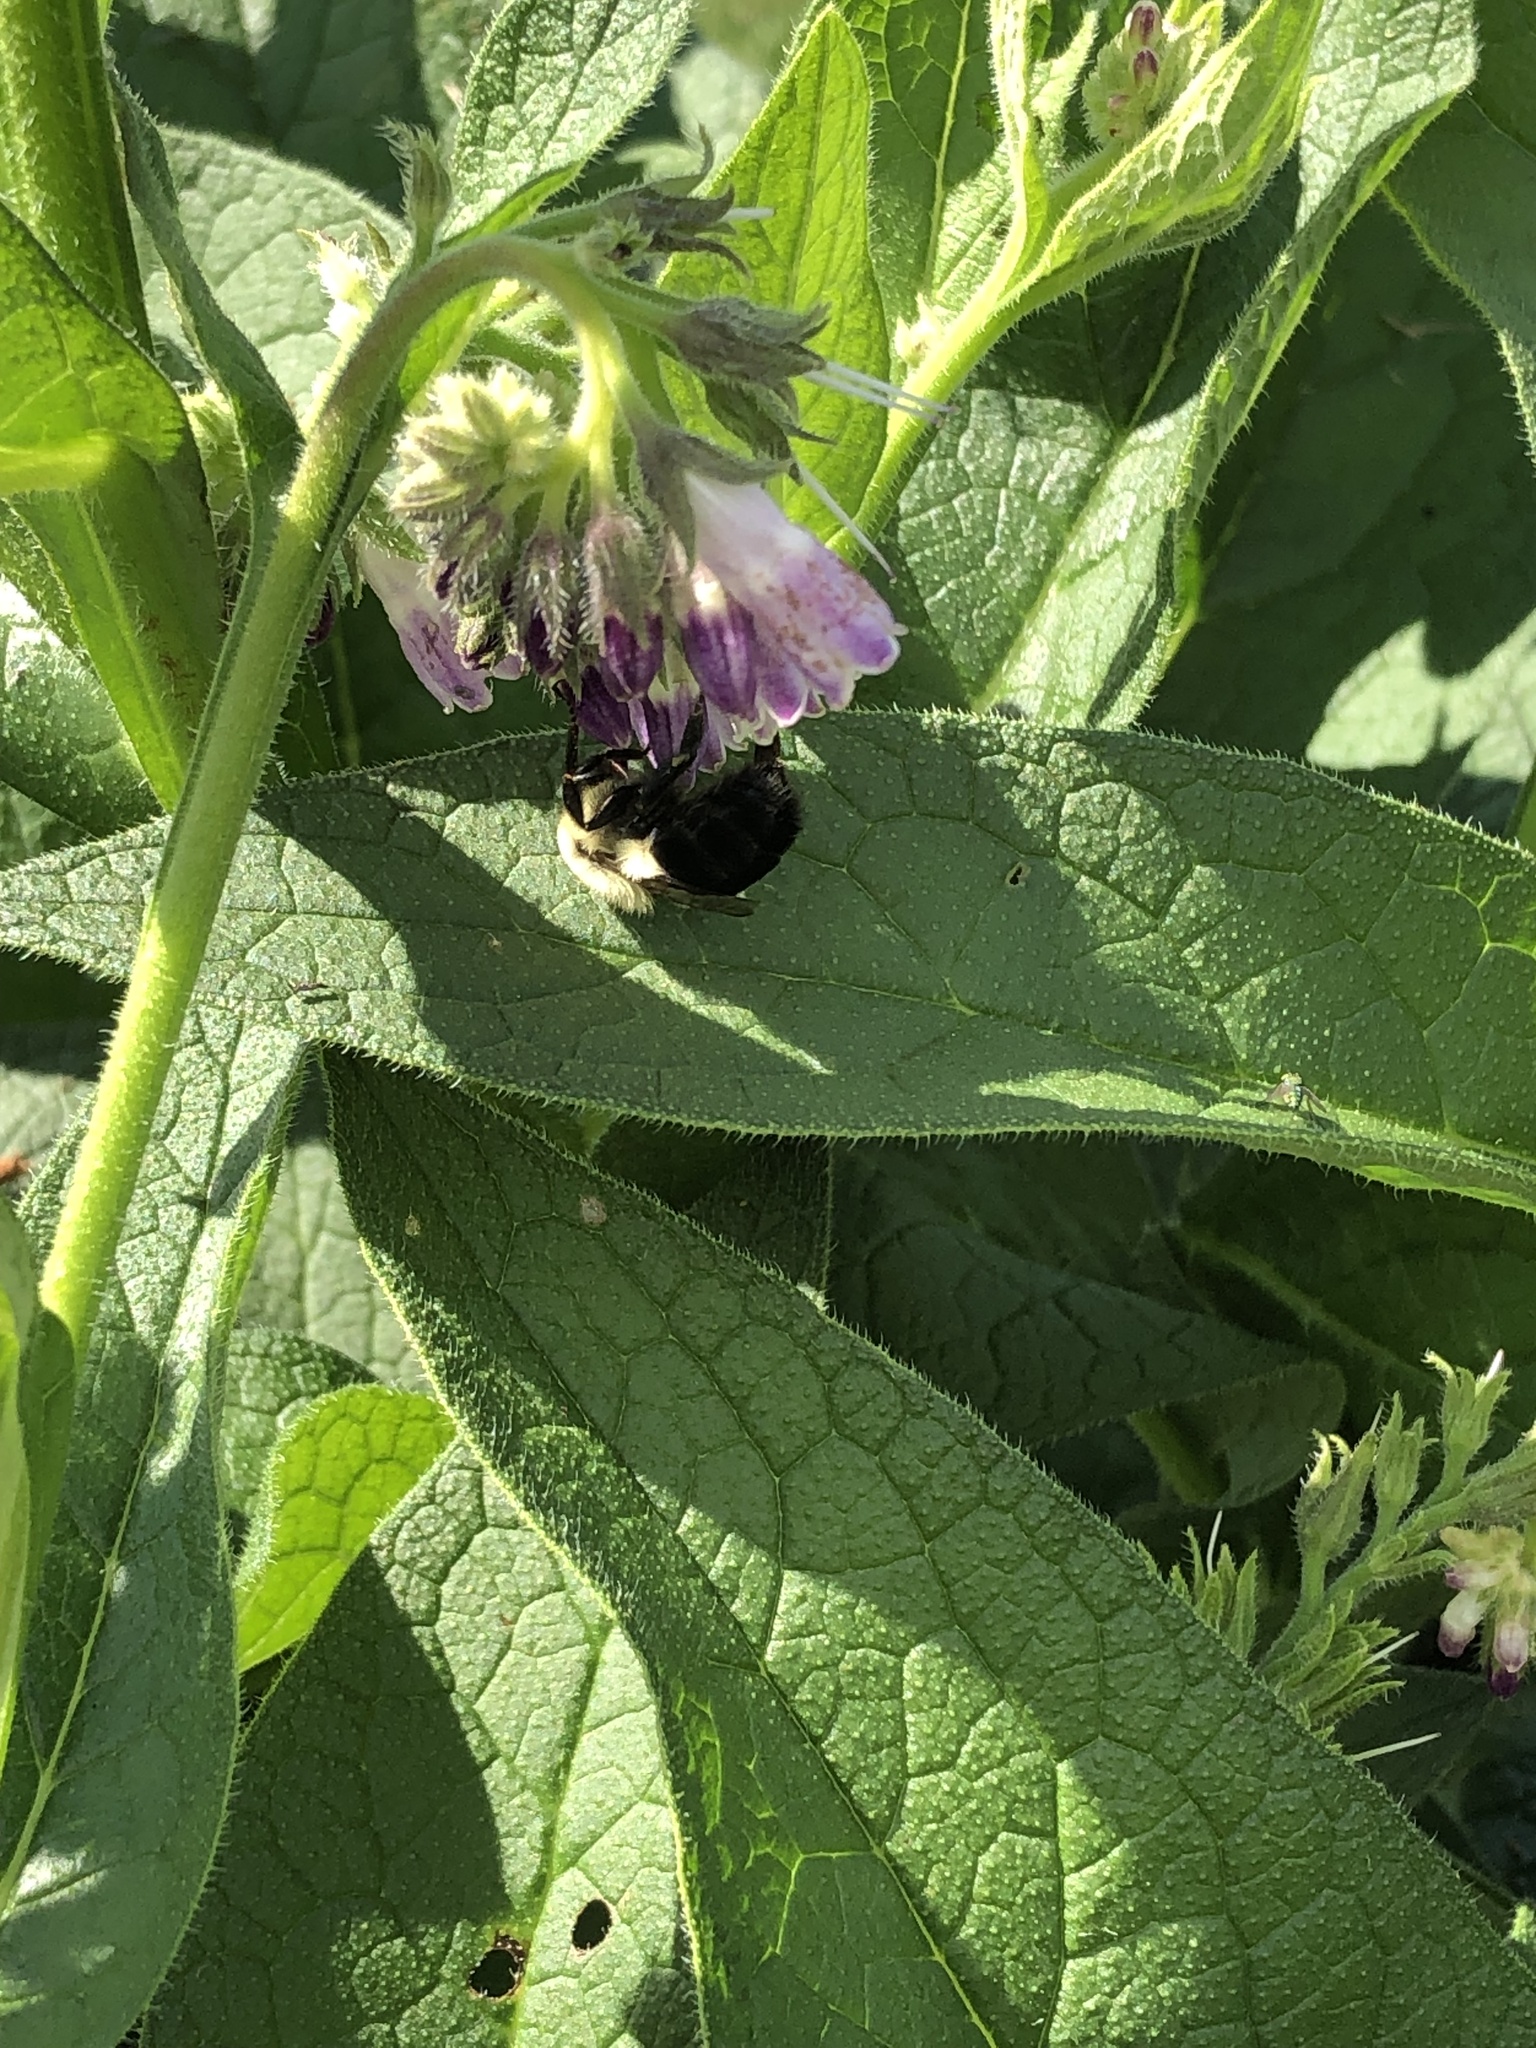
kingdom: Animalia
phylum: Arthropoda
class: Insecta
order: Hymenoptera
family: Apidae
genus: Bombus
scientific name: Bombus impatiens
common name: Common eastern bumble bee
